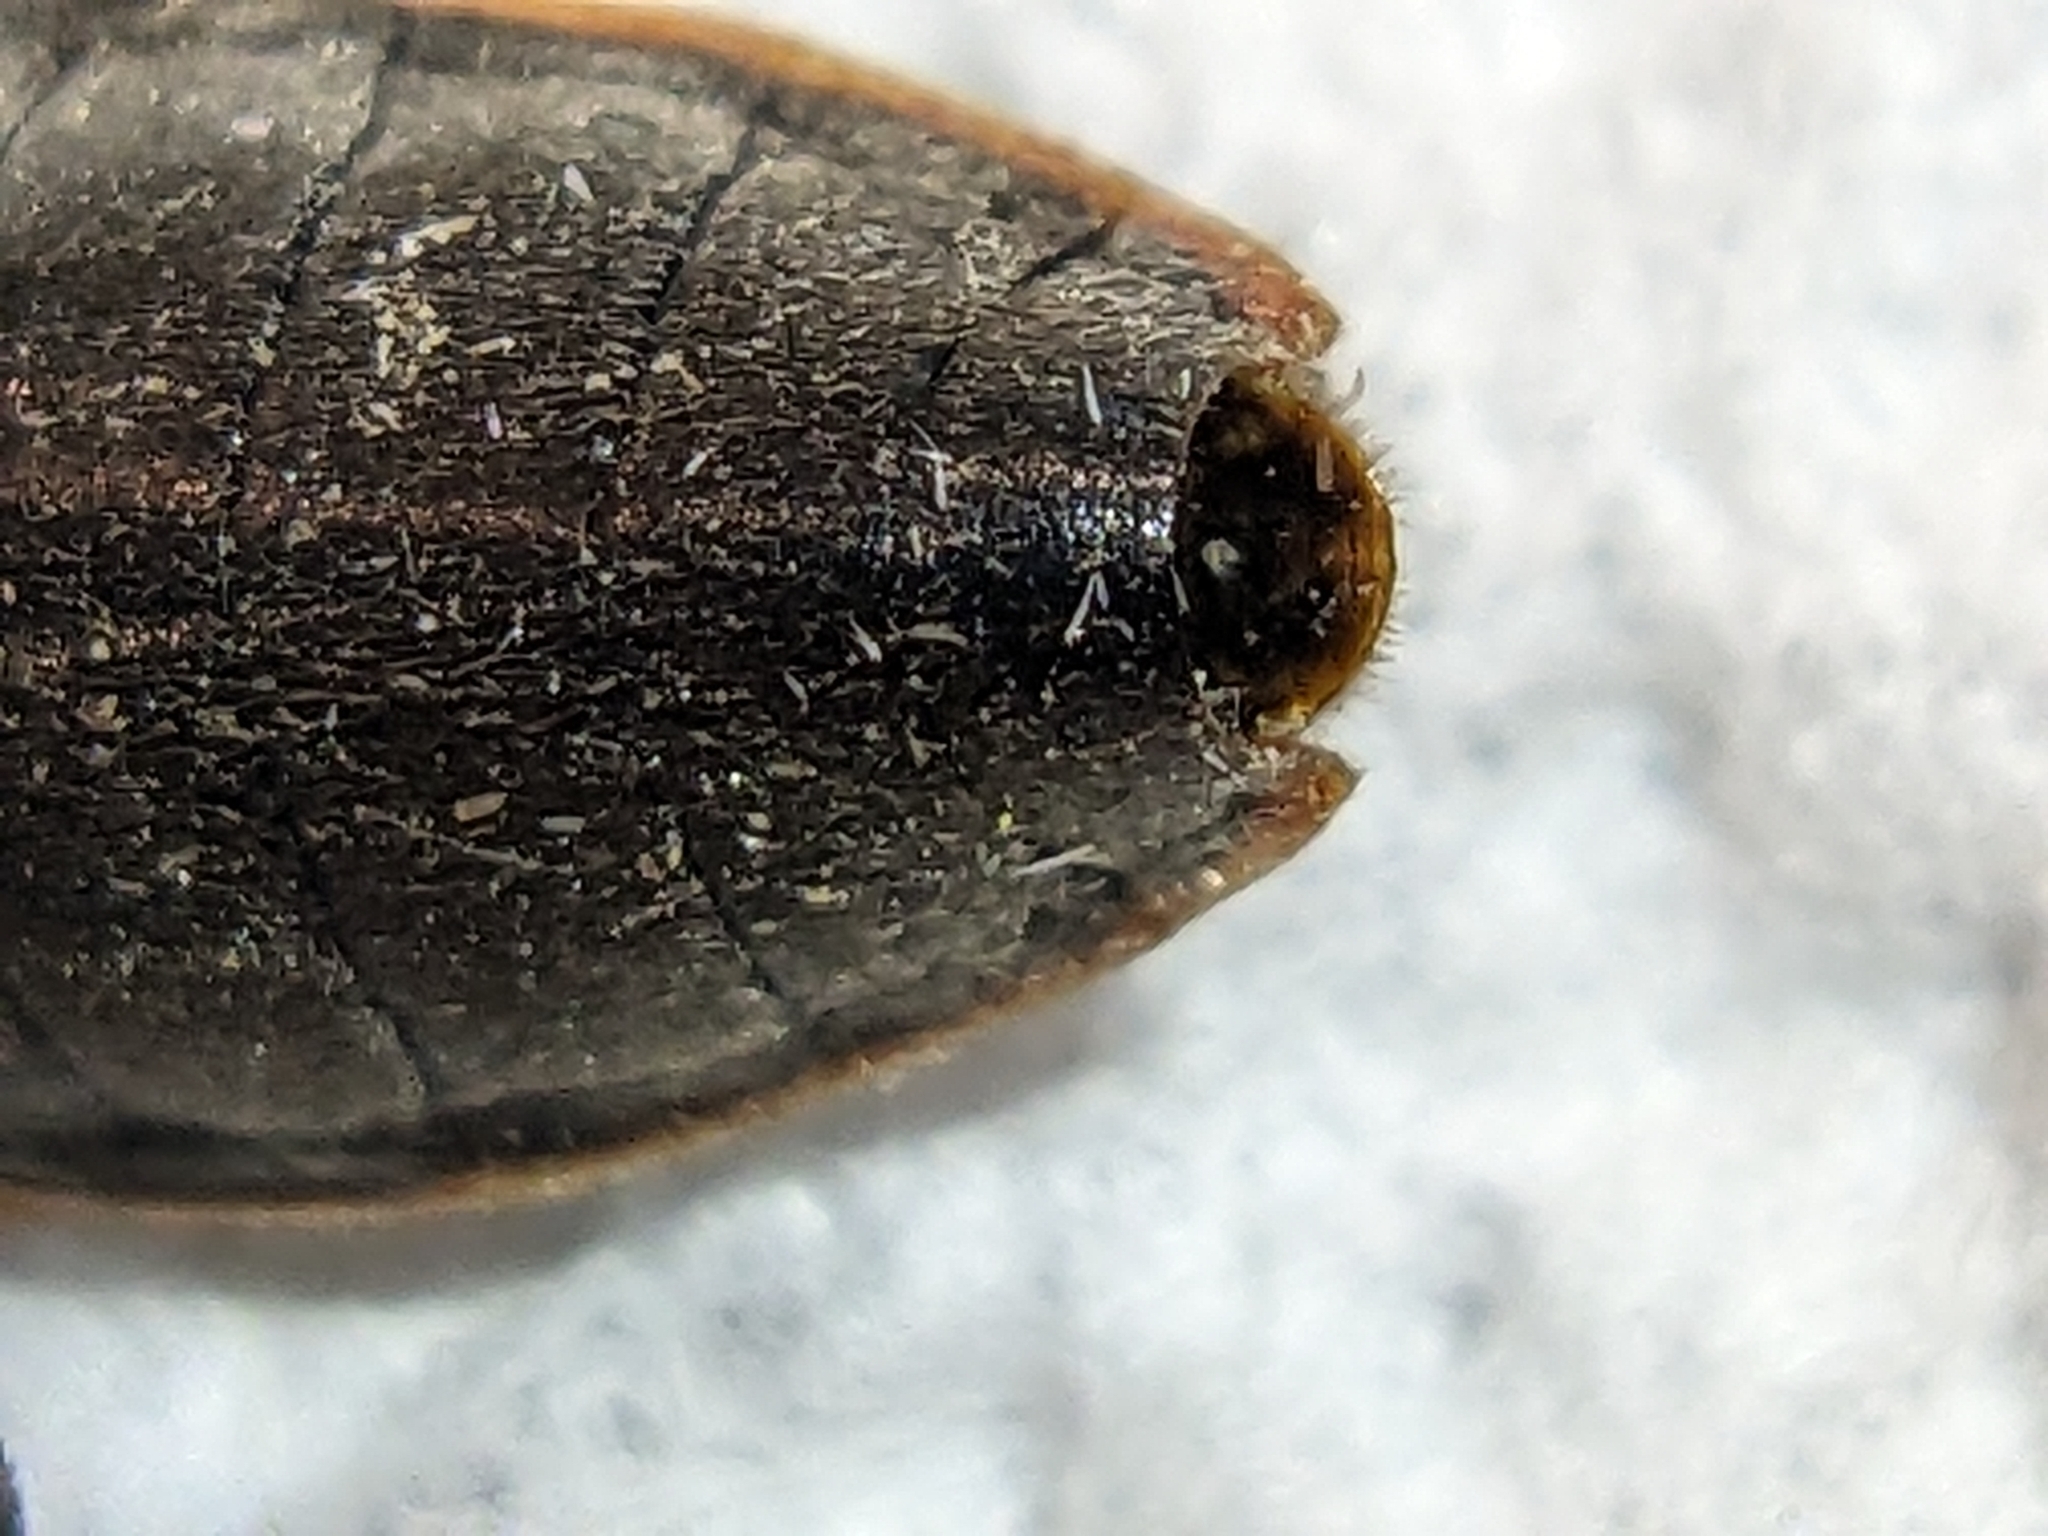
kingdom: Animalia
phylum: Arthropoda
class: Insecta
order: Hemiptera
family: Largidae
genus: Largus
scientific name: Largus succinctus
